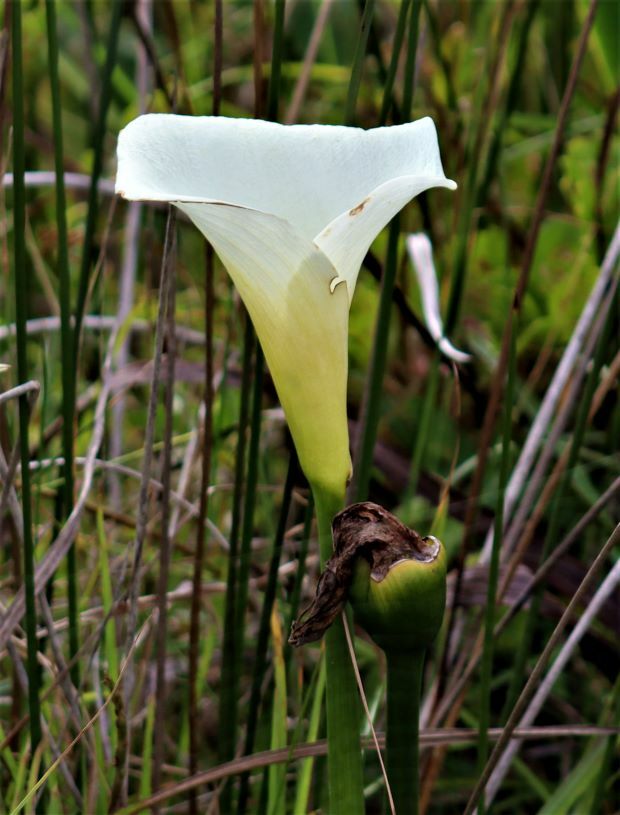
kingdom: Plantae
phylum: Tracheophyta
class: Liliopsida
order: Alismatales
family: Araceae
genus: Zantedeschia
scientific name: Zantedeschia aethiopica
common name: Altar-lily
